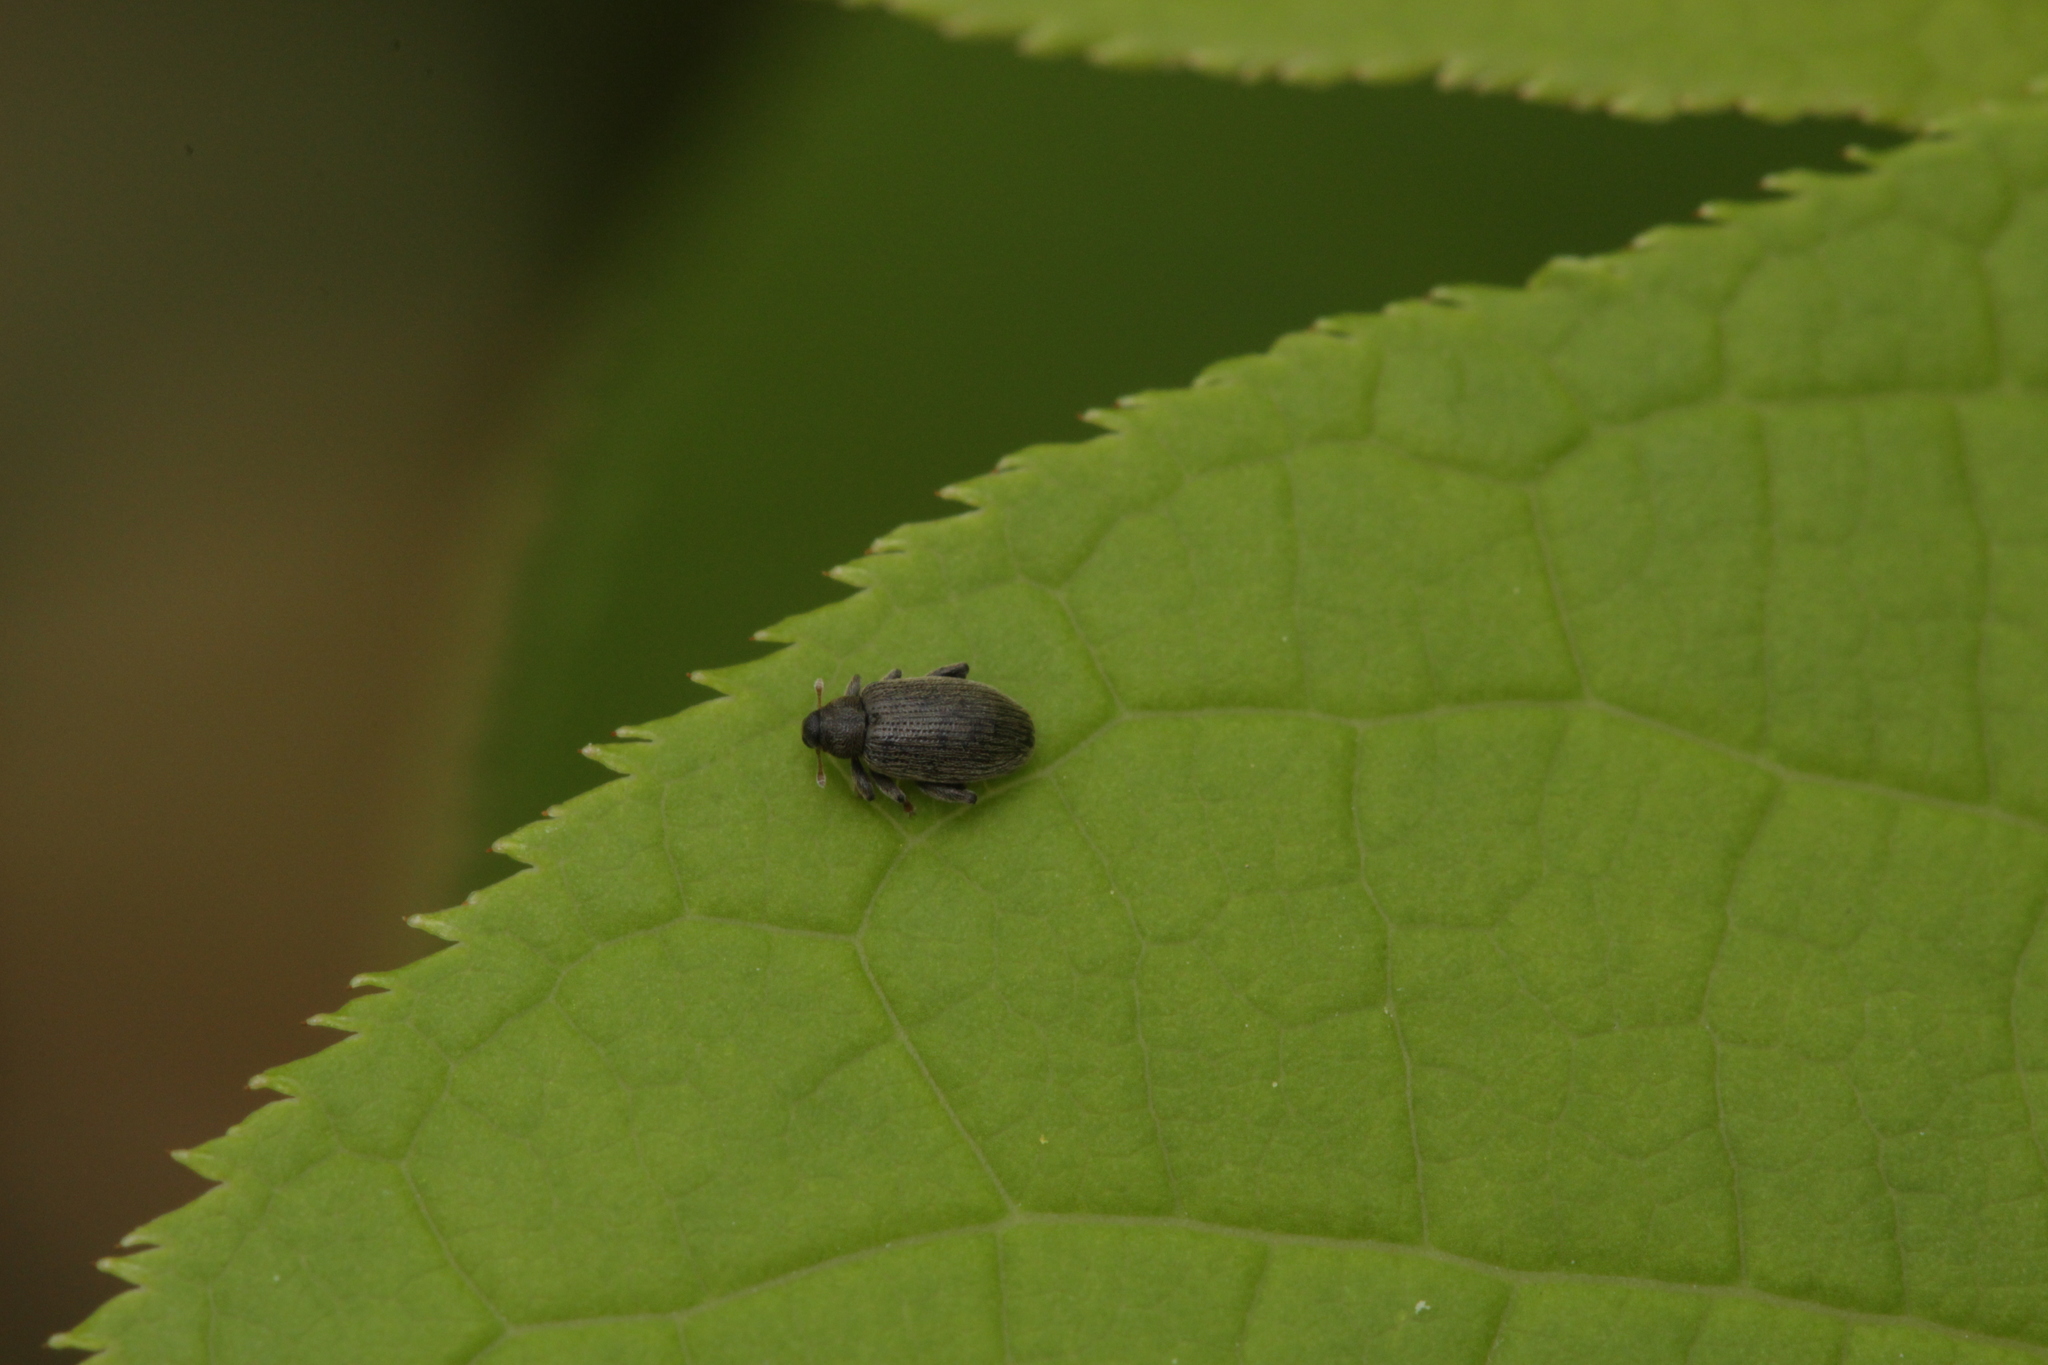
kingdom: Animalia
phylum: Arthropoda
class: Insecta
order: Coleoptera
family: Curculionidae
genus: Orchestes
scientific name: Orchestes fagi
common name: Beech leaf miner
